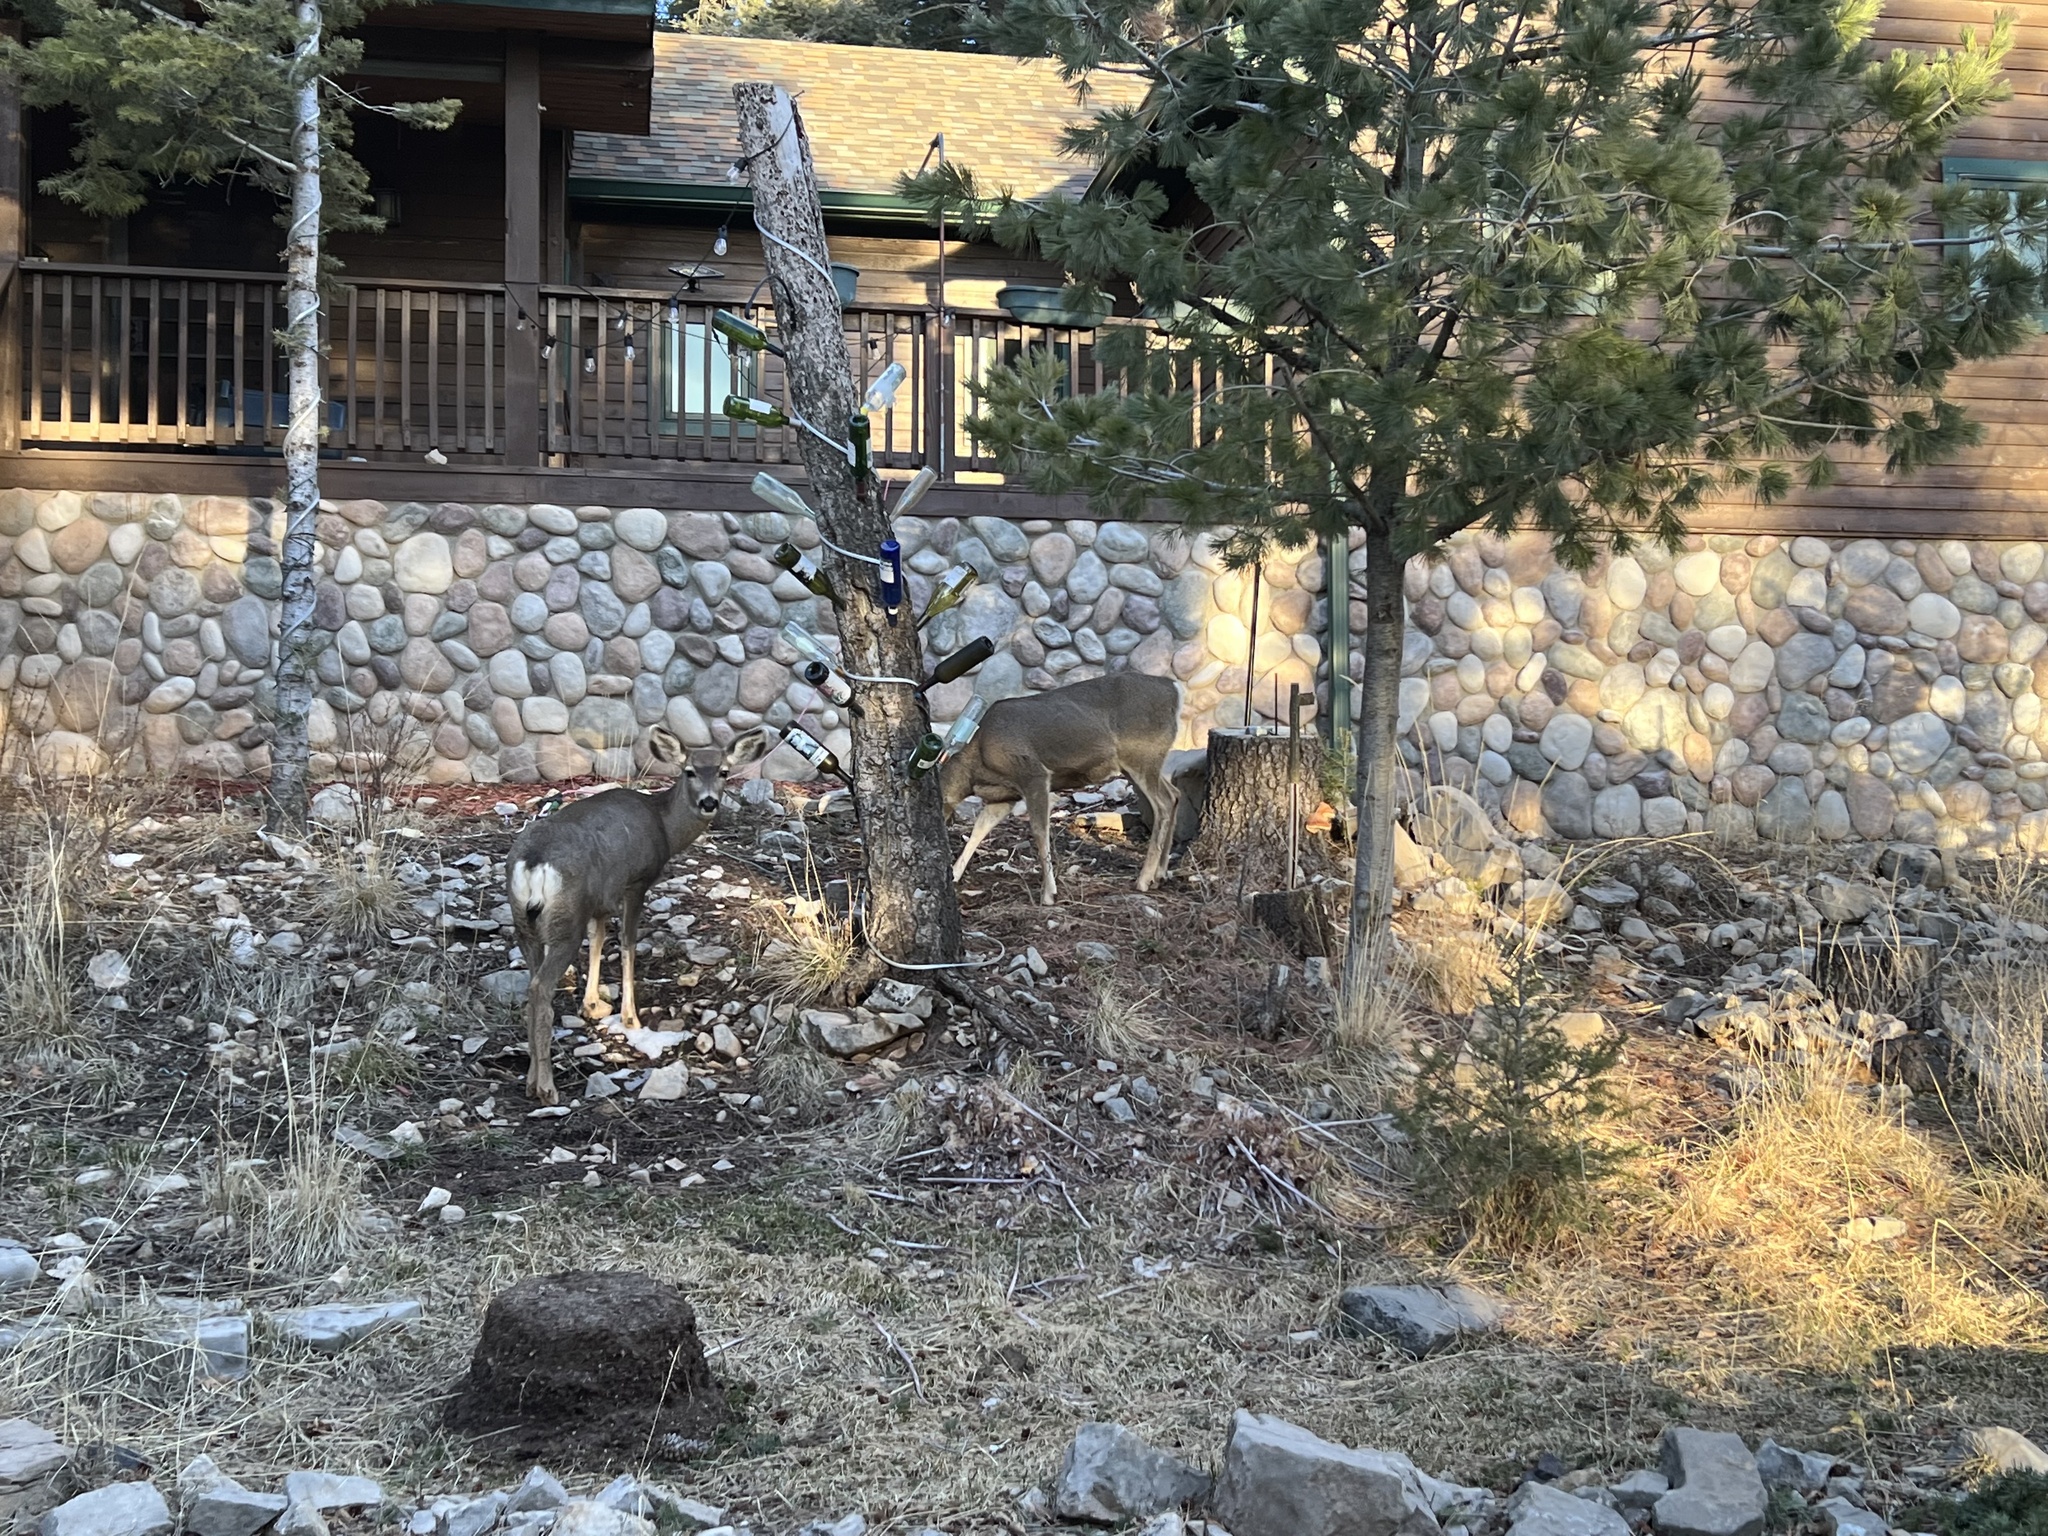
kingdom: Animalia
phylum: Chordata
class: Mammalia
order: Artiodactyla
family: Cervidae
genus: Odocoileus
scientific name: Odocoileus hemionus
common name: Mule deer
